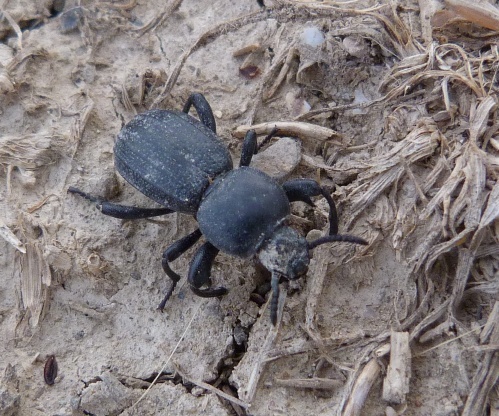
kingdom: Animalia
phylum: Arthropoda
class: Insecta
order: Coleoptera
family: Tenebrionidae
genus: Scaurus
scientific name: Scaurus uncinus
